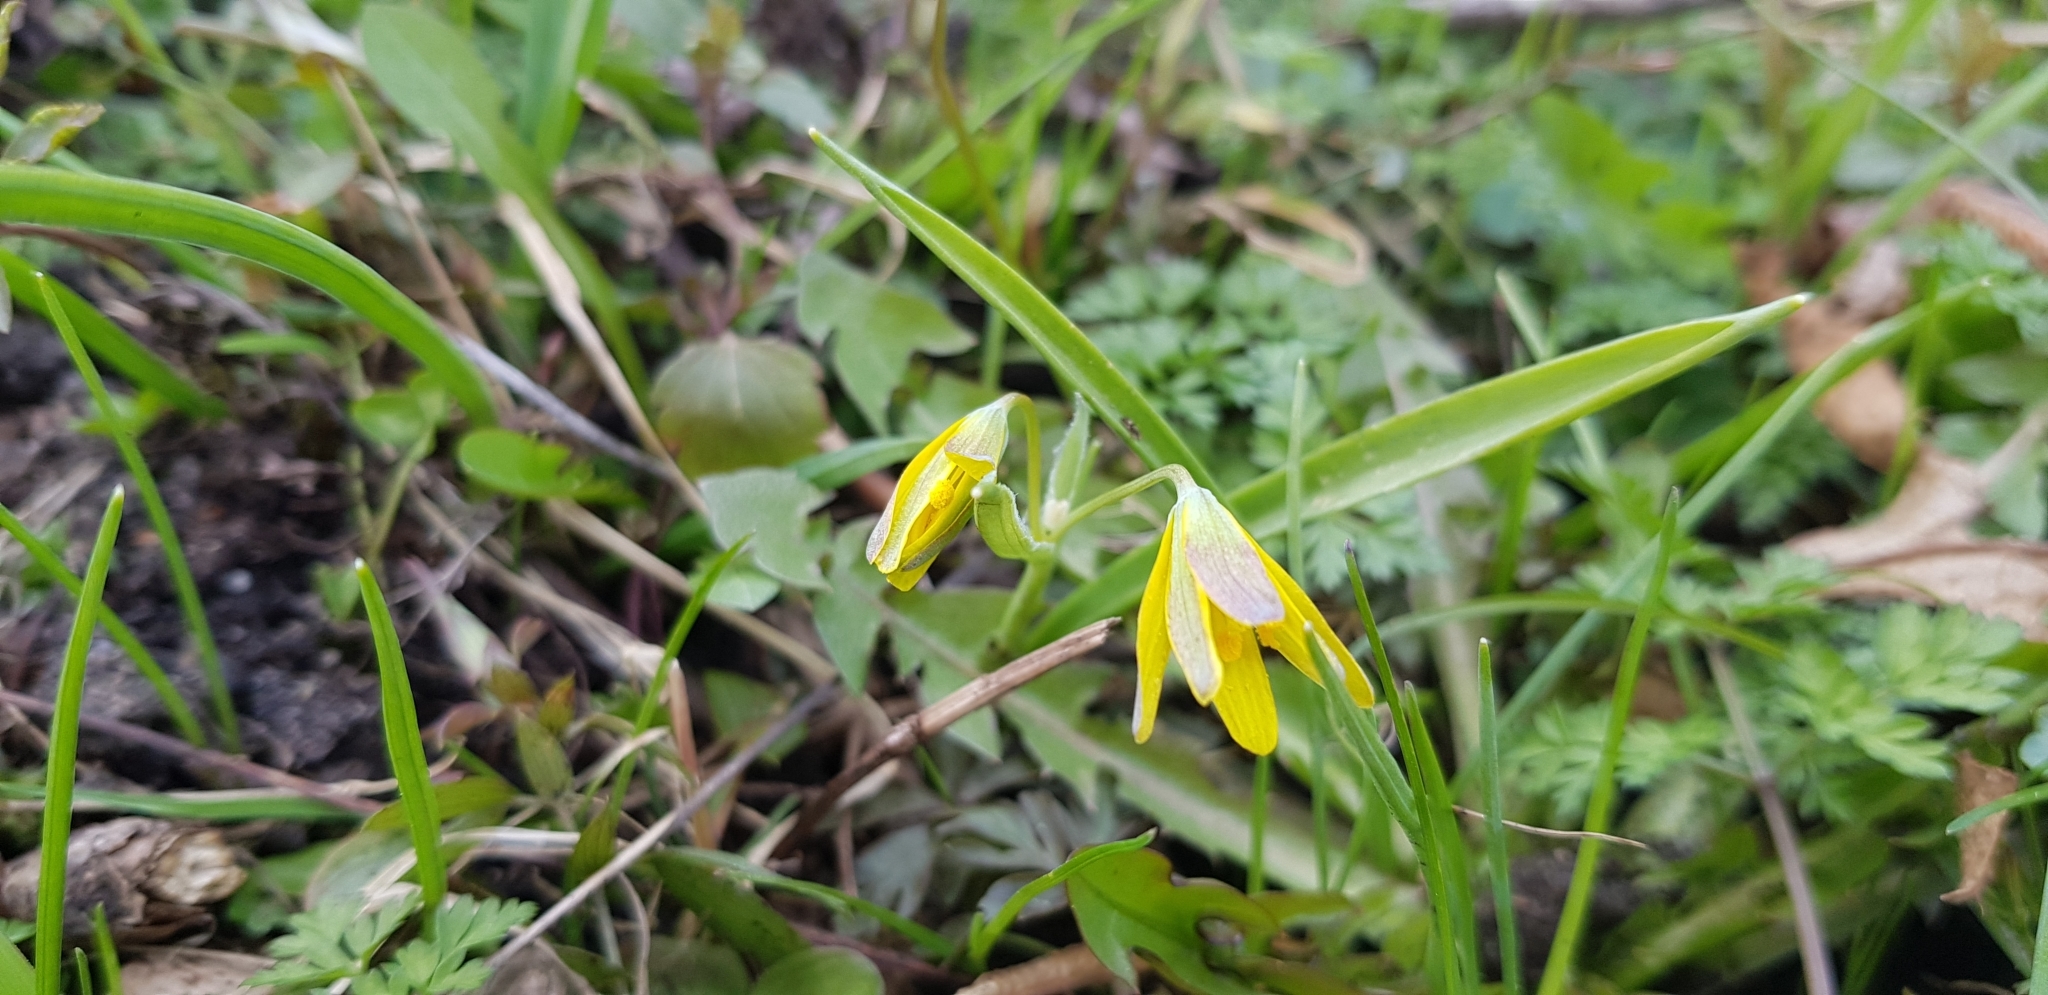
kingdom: Plantae
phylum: Tracheophyta
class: Liliopsida
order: Liliales
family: Liliaceae
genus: Gagea
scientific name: Gagea lutea
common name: Yellow star-of-bethlehem
